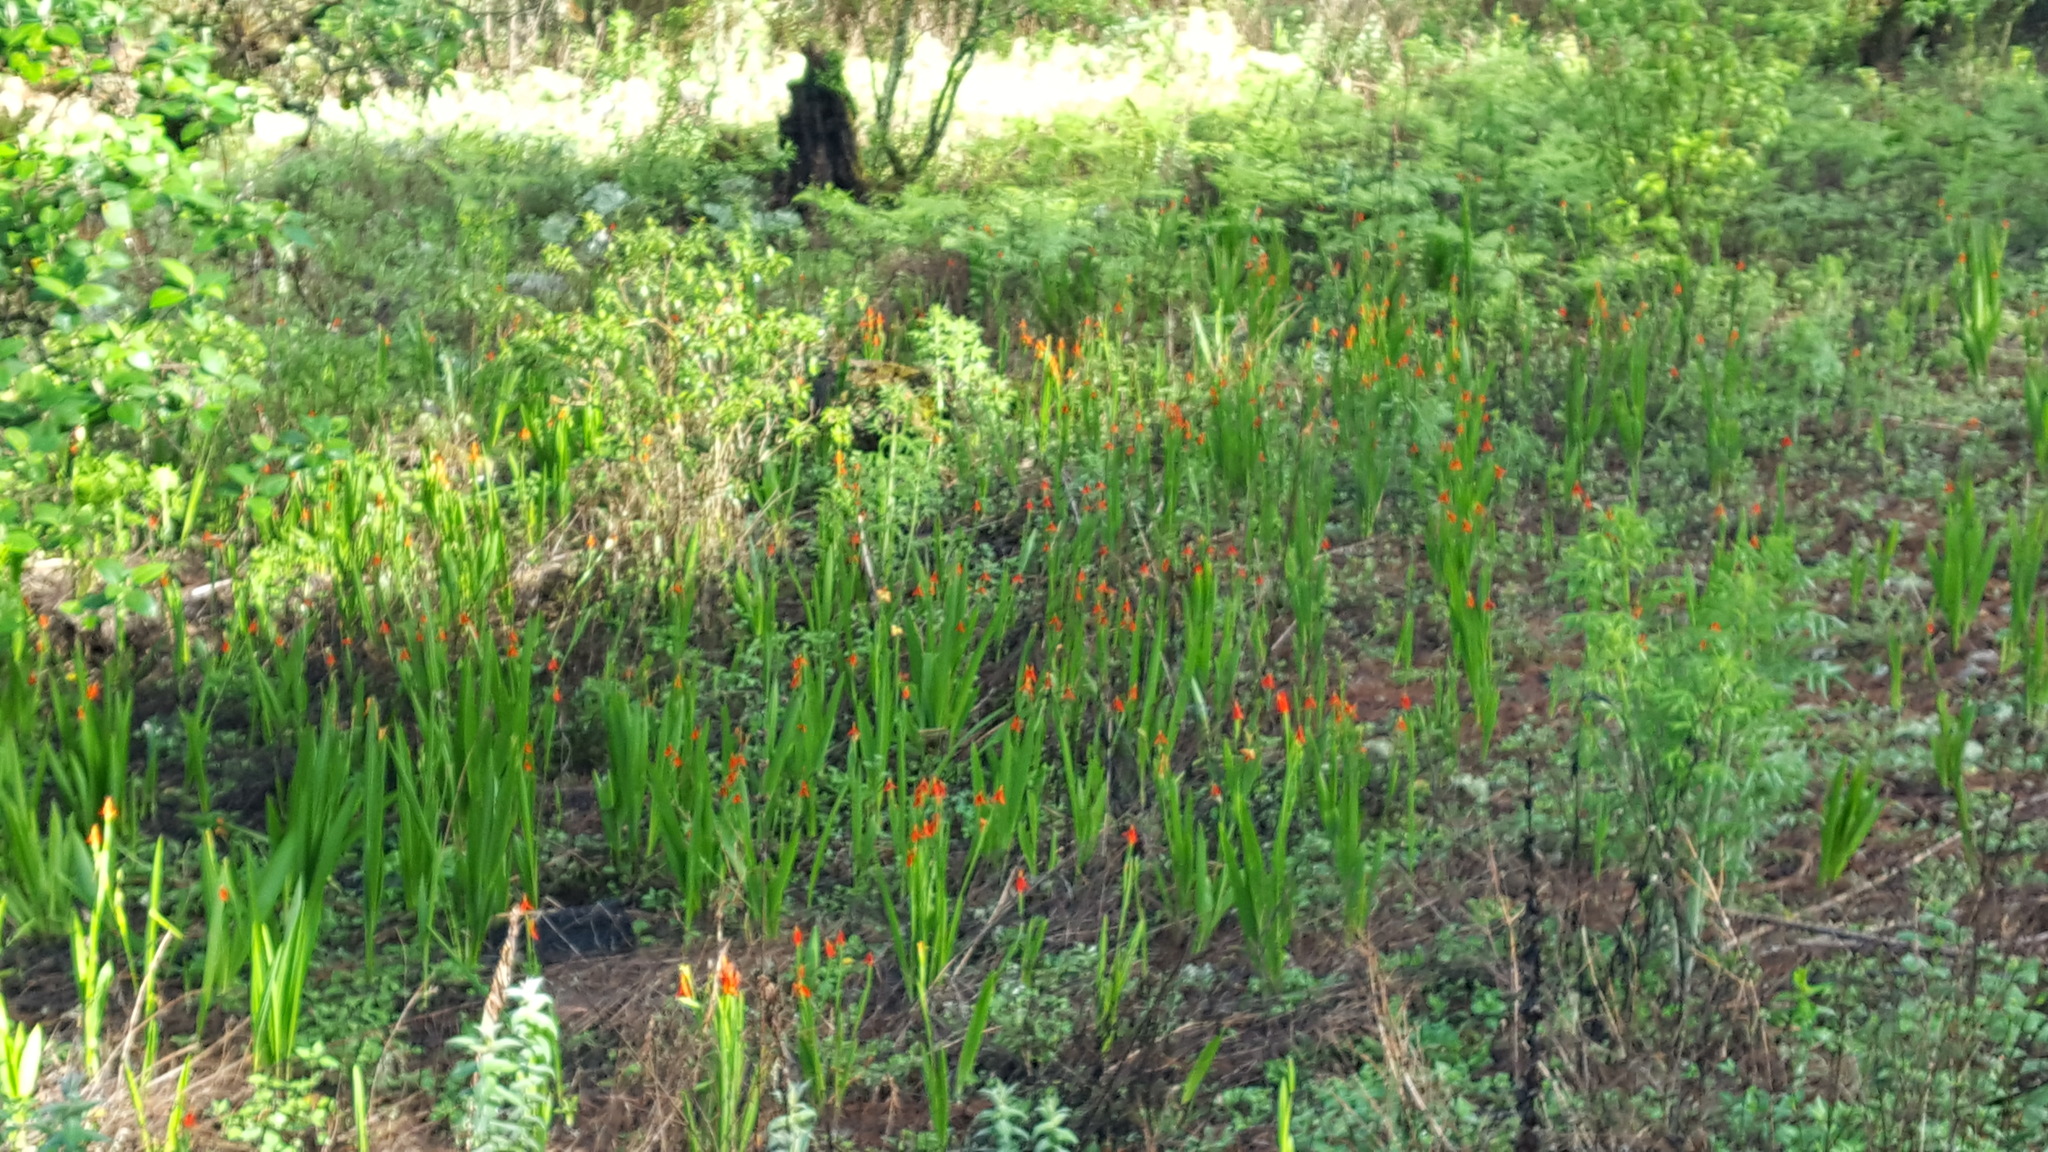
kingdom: Plantae
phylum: Tracheophyta
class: Liliopsida
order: Asparagales
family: Iridaceae
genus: Tigridia
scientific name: Tigridia orthantha
